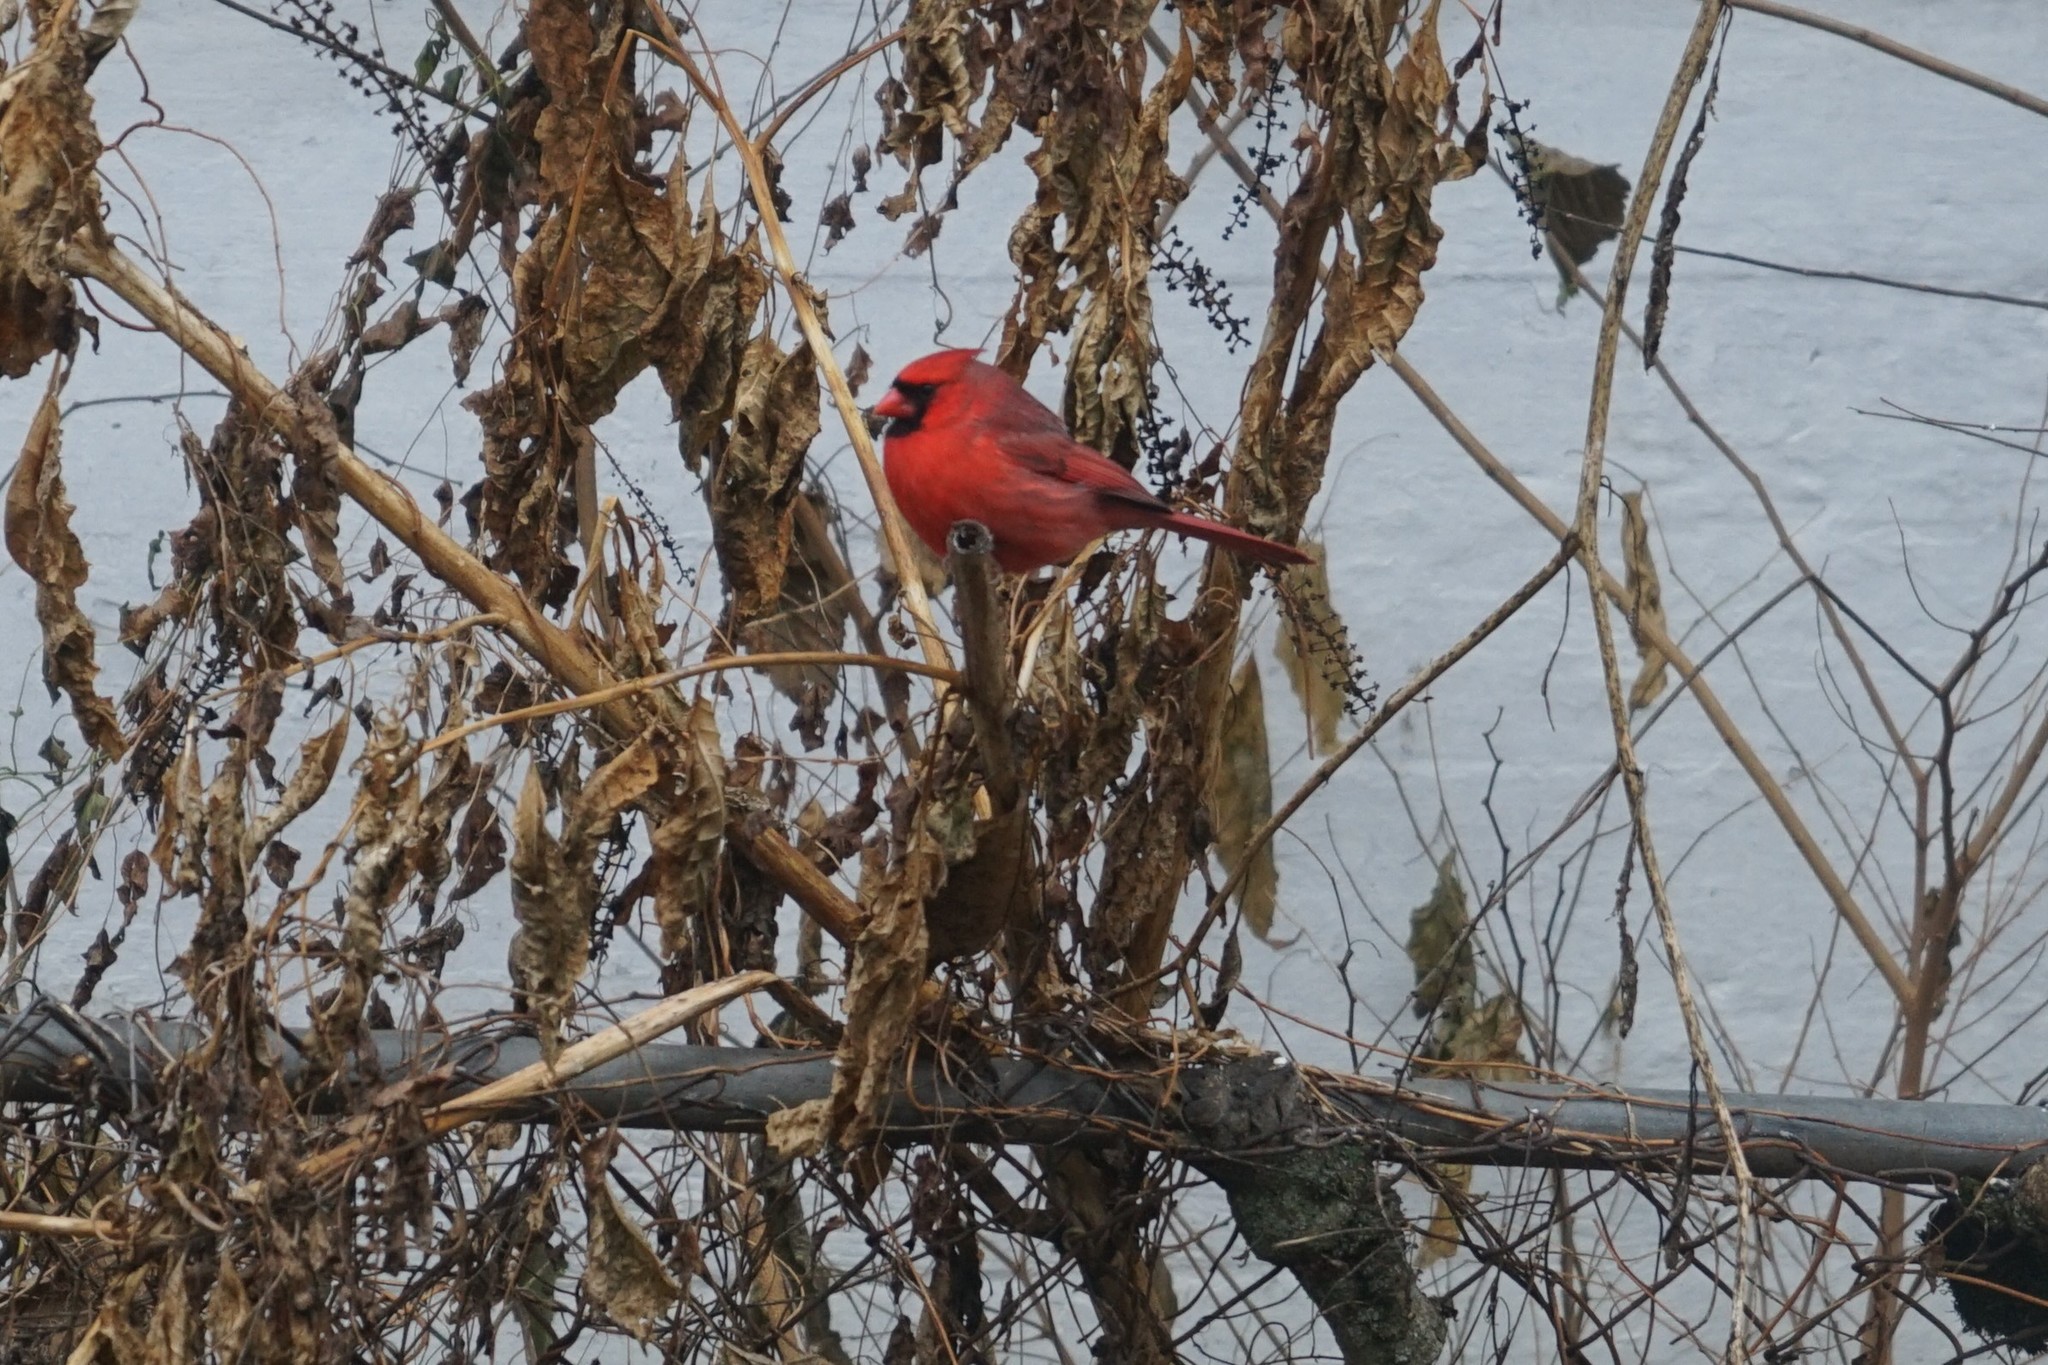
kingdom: Animalia
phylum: Chordata
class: Aves
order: Passeriformes
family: Cardinalidae
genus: Cardinalis
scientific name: Cardinalis cardinalis
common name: Northern cardinal
